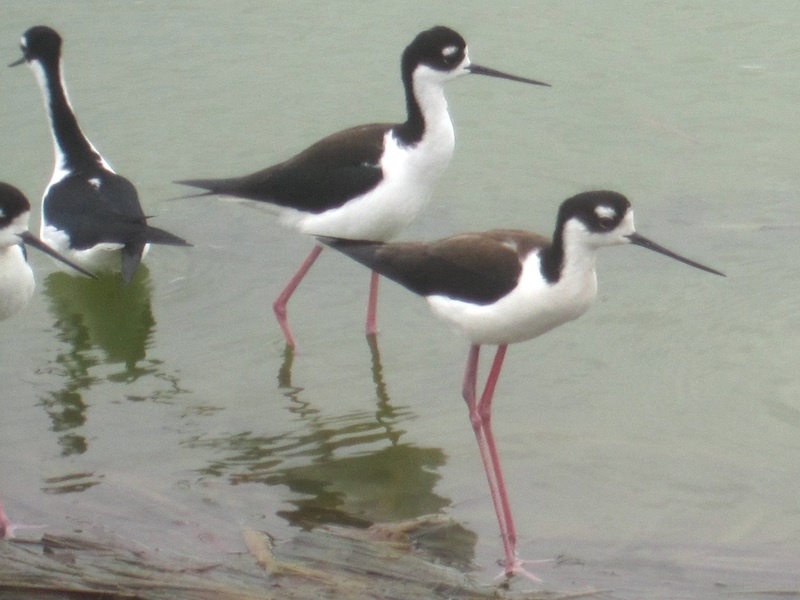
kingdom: Animalia
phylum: Chordata
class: Aves
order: Charadriiformes
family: Recurvirostridae
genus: Himantopus
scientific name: Himantopus mexicanus
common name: Black-necked stilt
